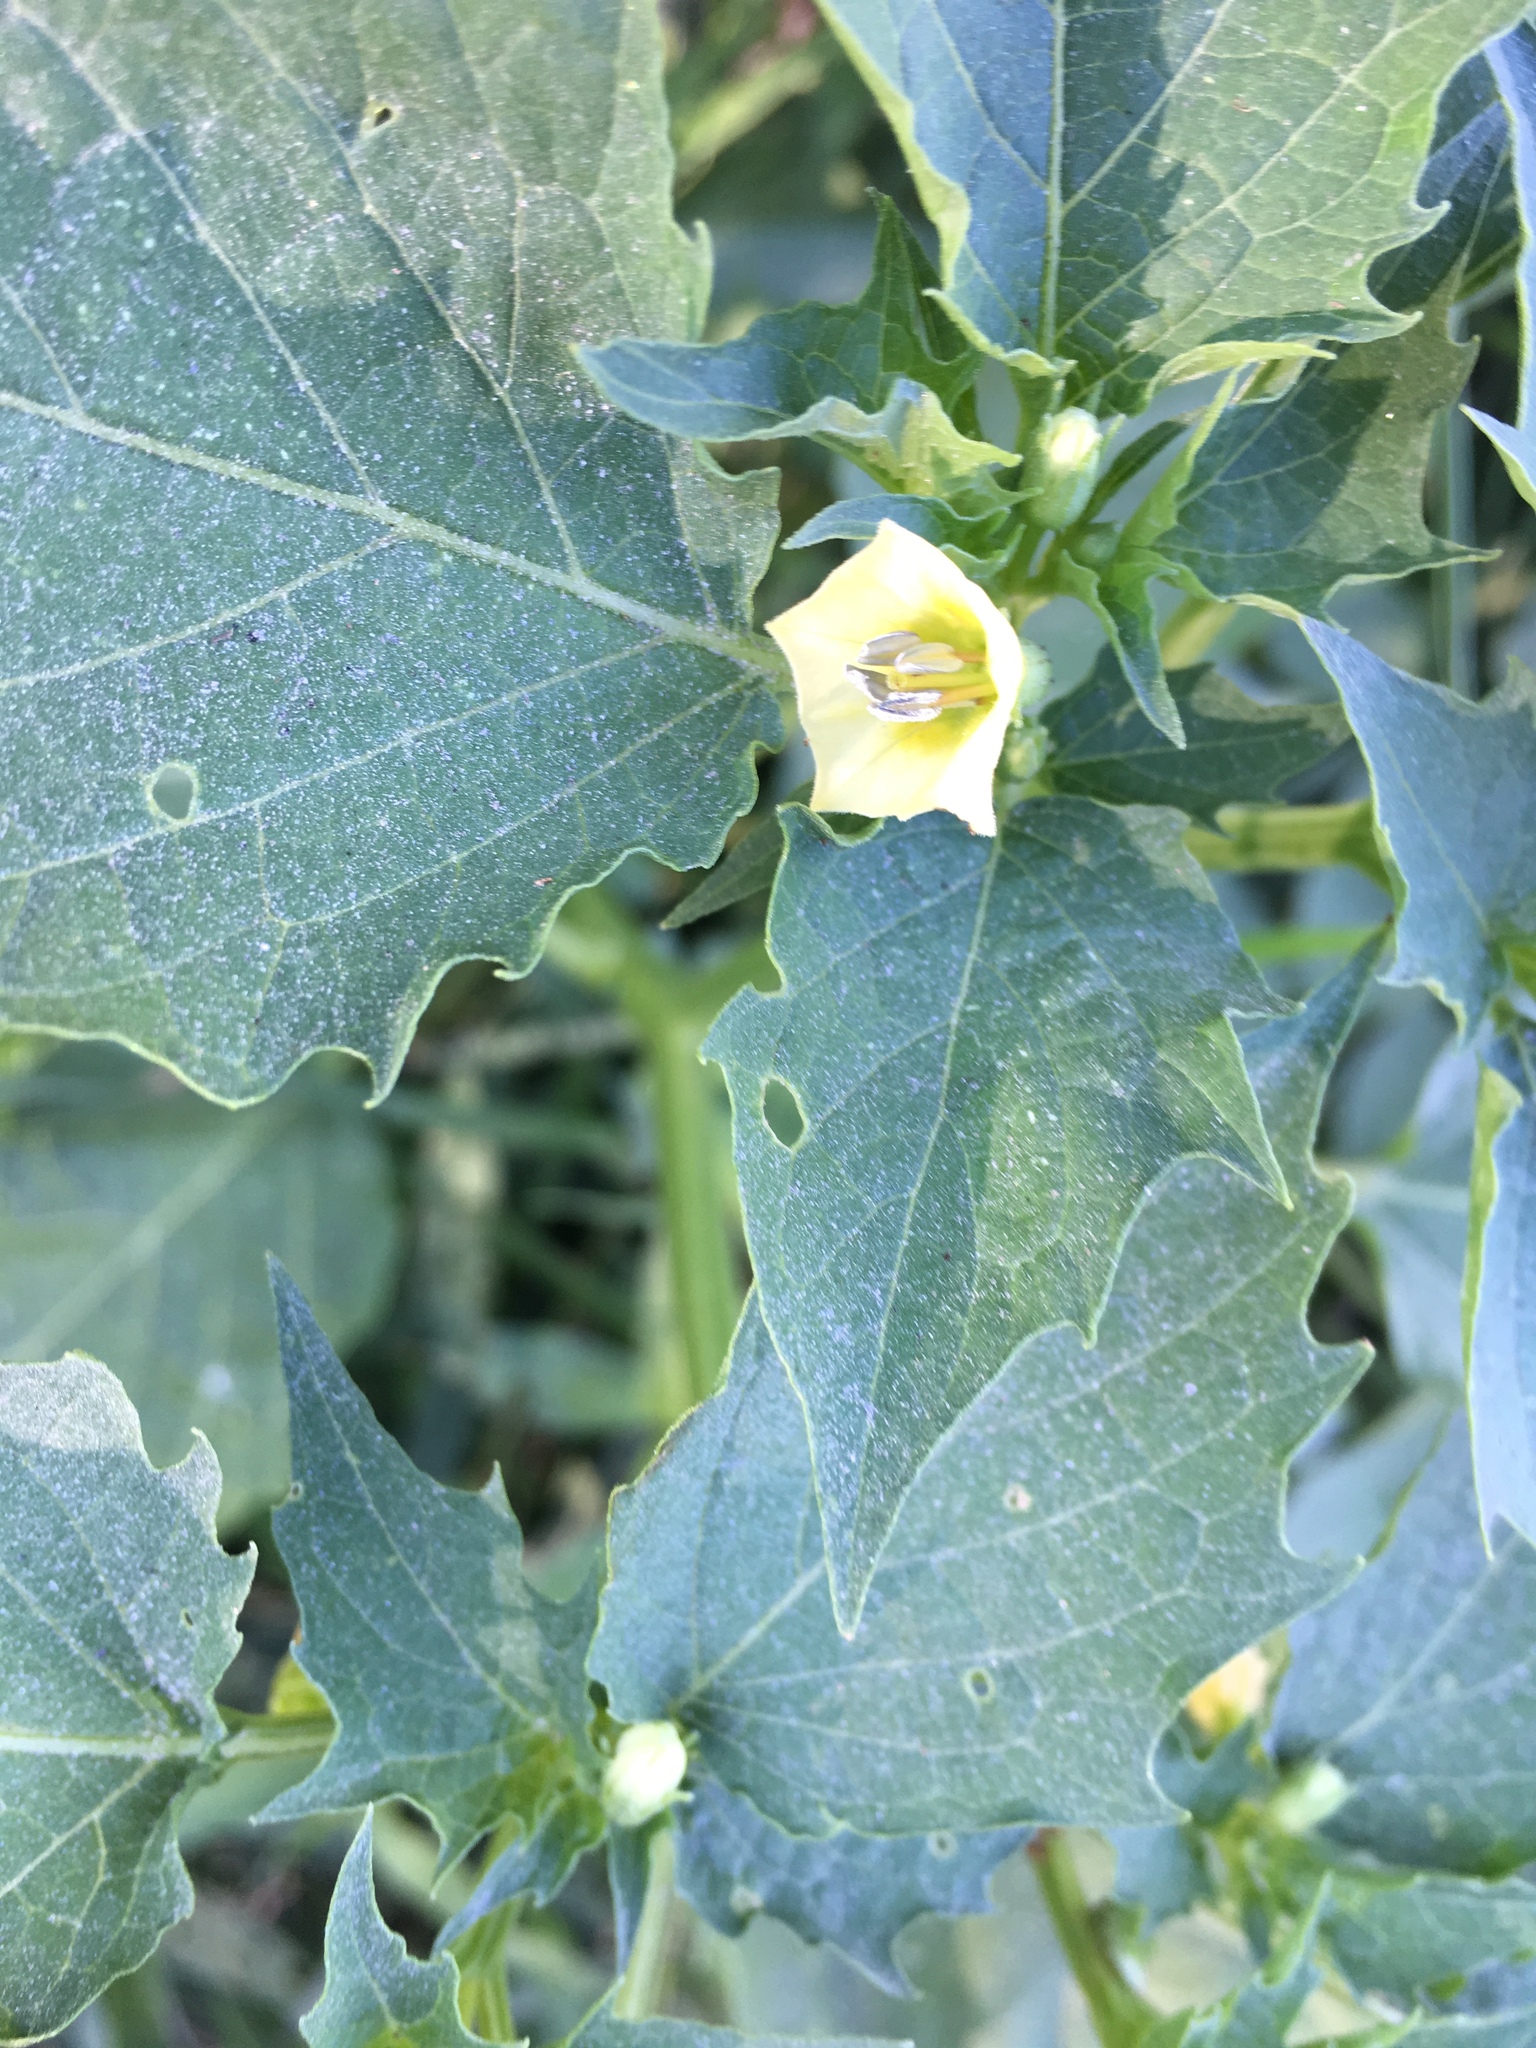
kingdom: Plantae
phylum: Tracheophyta
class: Magnoliopsida
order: Solanales
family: Solanaceae
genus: Physalis
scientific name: Physalis angulata
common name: Angular winter-cherry
